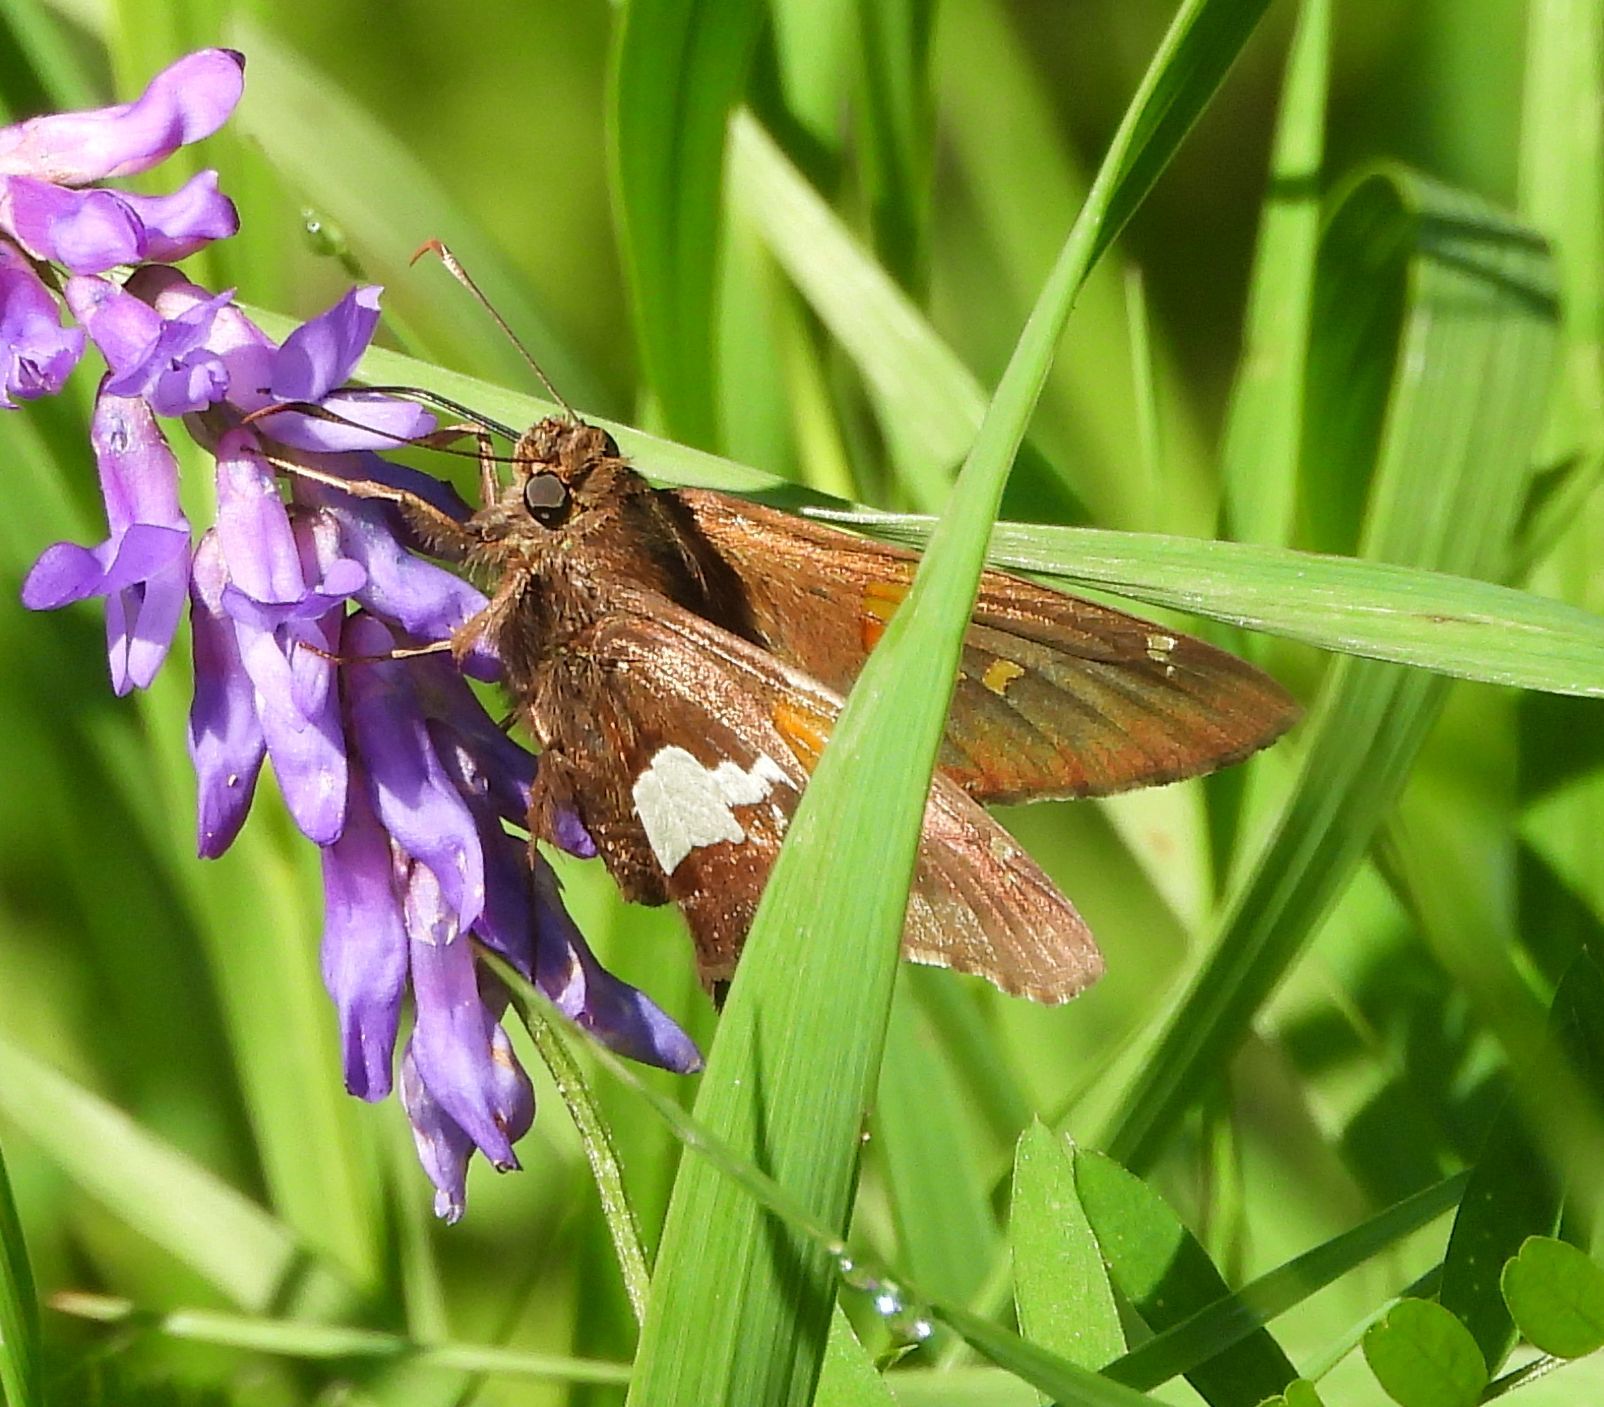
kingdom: Animalia
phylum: Arthropoda
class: Insecta
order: Lepidoptera
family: Hesperiidae
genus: Epargyreus
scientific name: Epargyreus clarus
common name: Silver-spotted skipper
